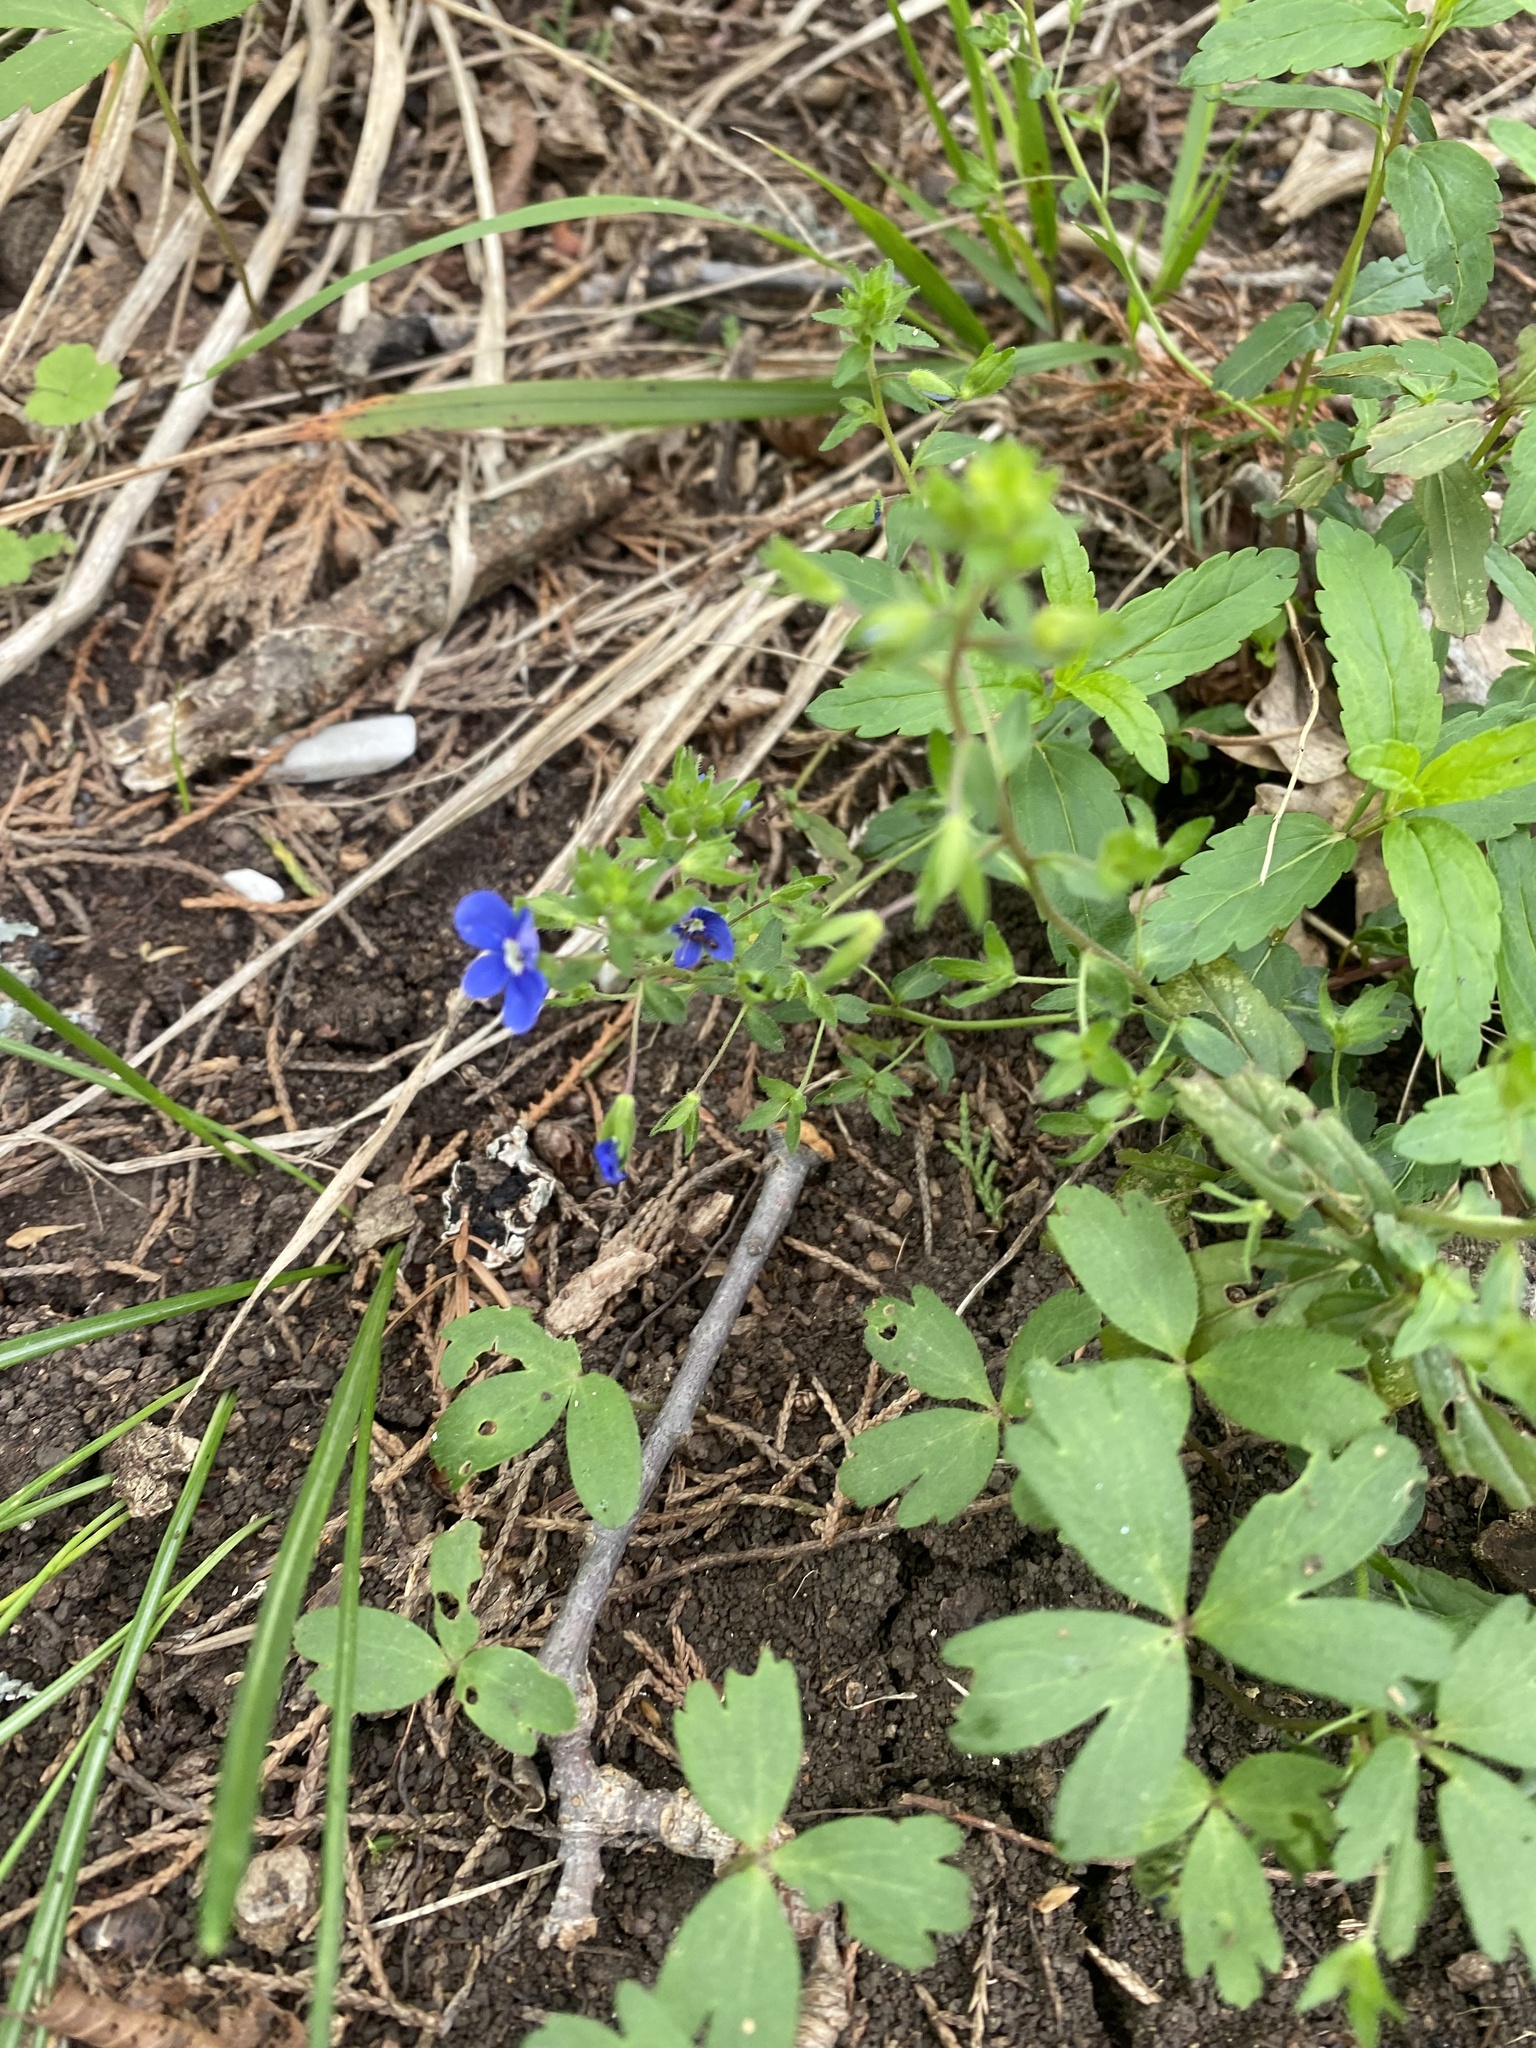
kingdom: Plantae
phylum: Tracheophyta
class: Magnoliopsida
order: Lamiales
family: Plantaginaceae
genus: Veronica
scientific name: Veronica
